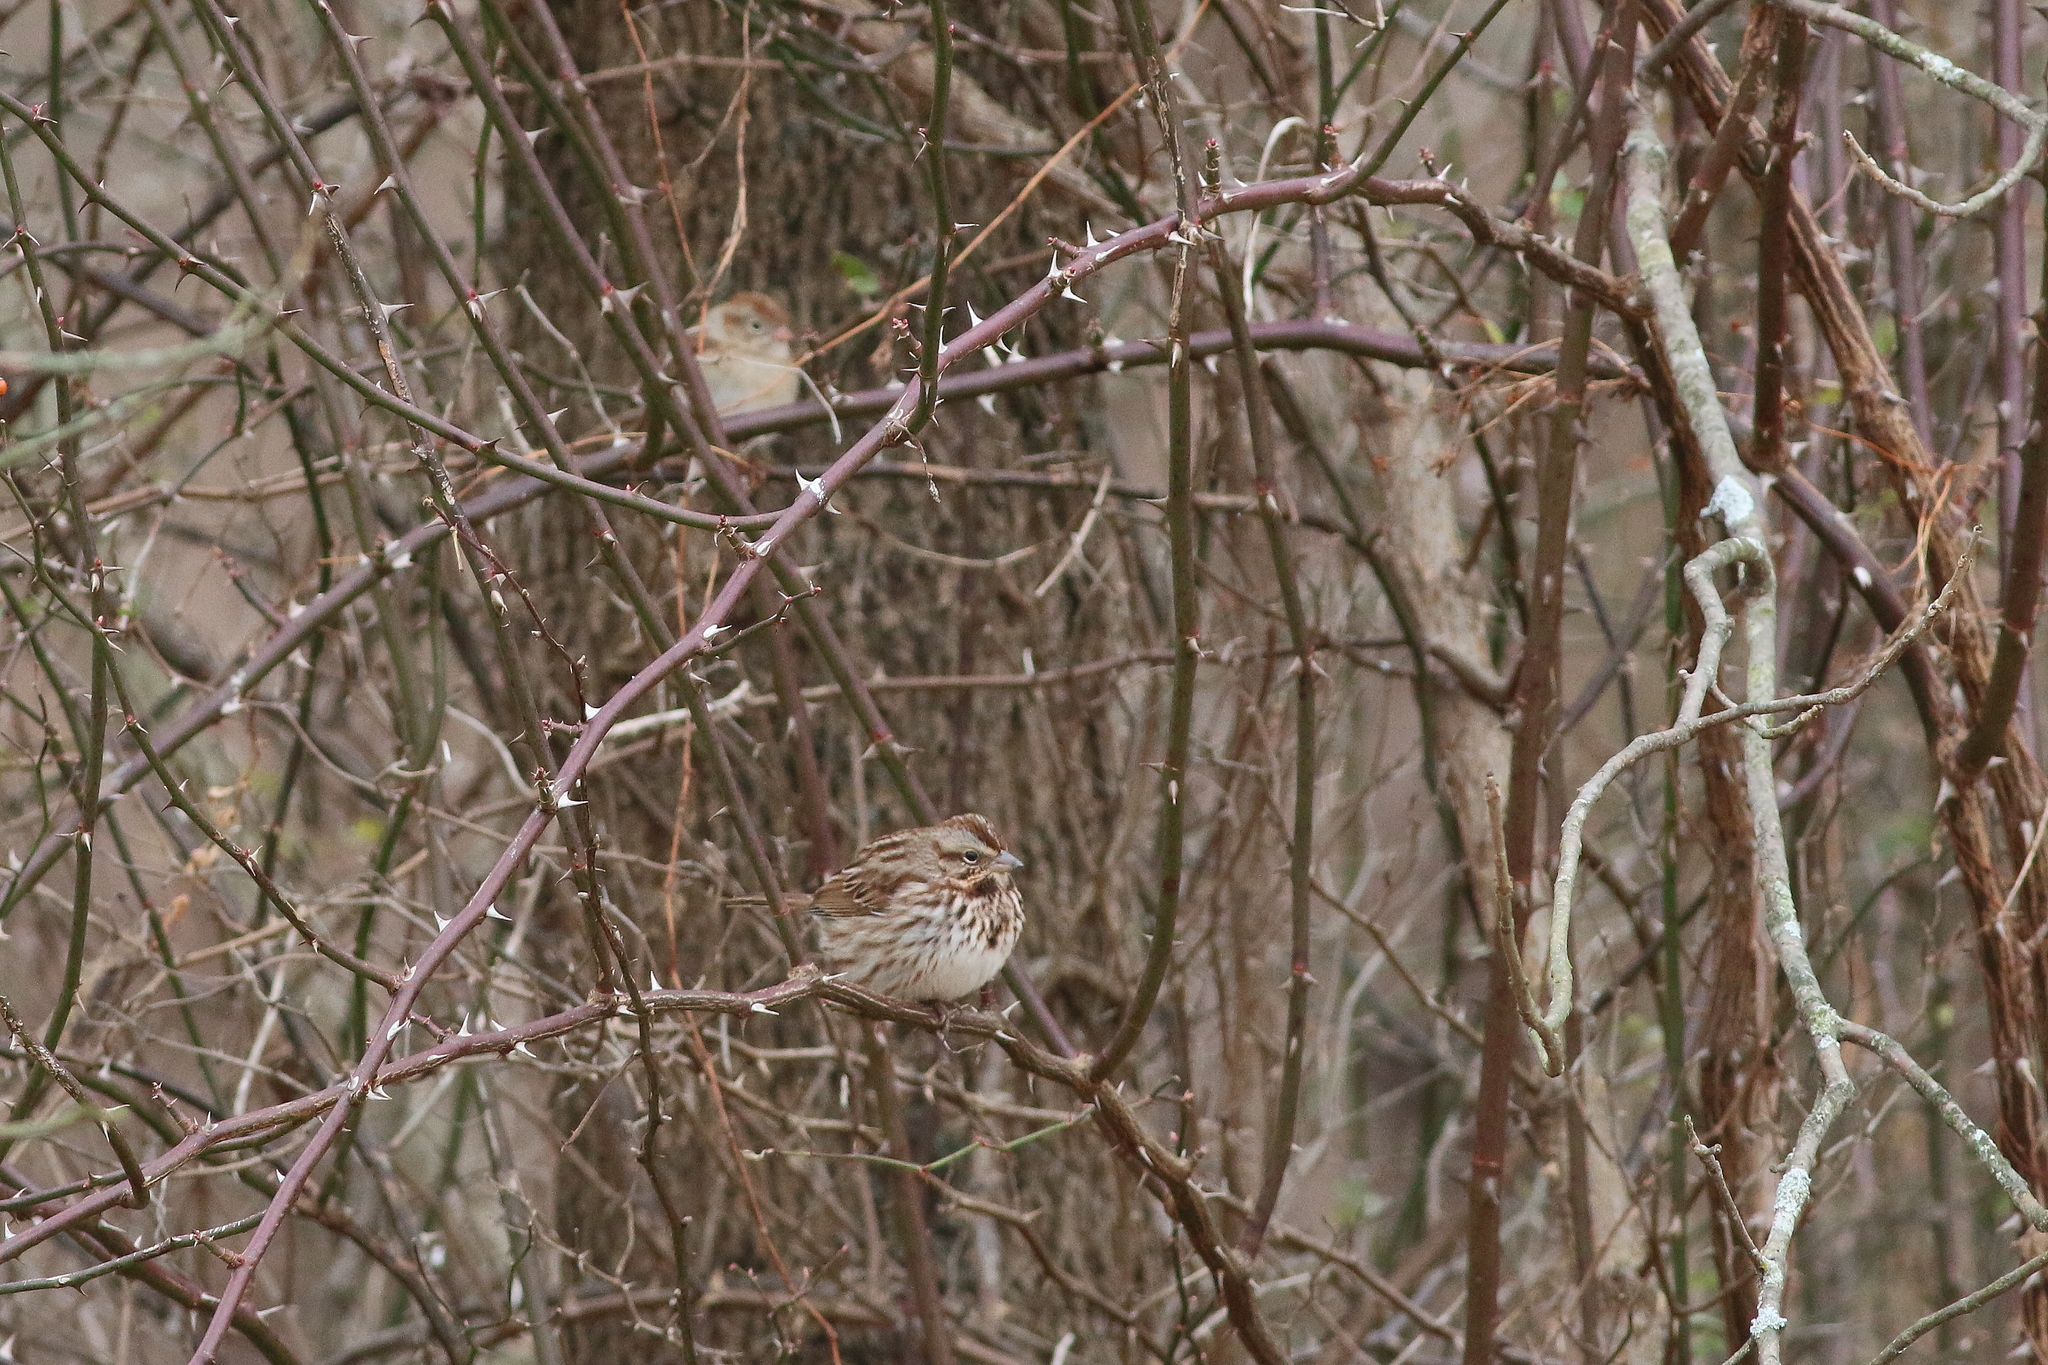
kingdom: Animalia
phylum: Chordata
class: Aves
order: Passeriformes
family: Passerellidae
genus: Melospiza
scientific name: Melospiza melodia
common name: Song sparrow
